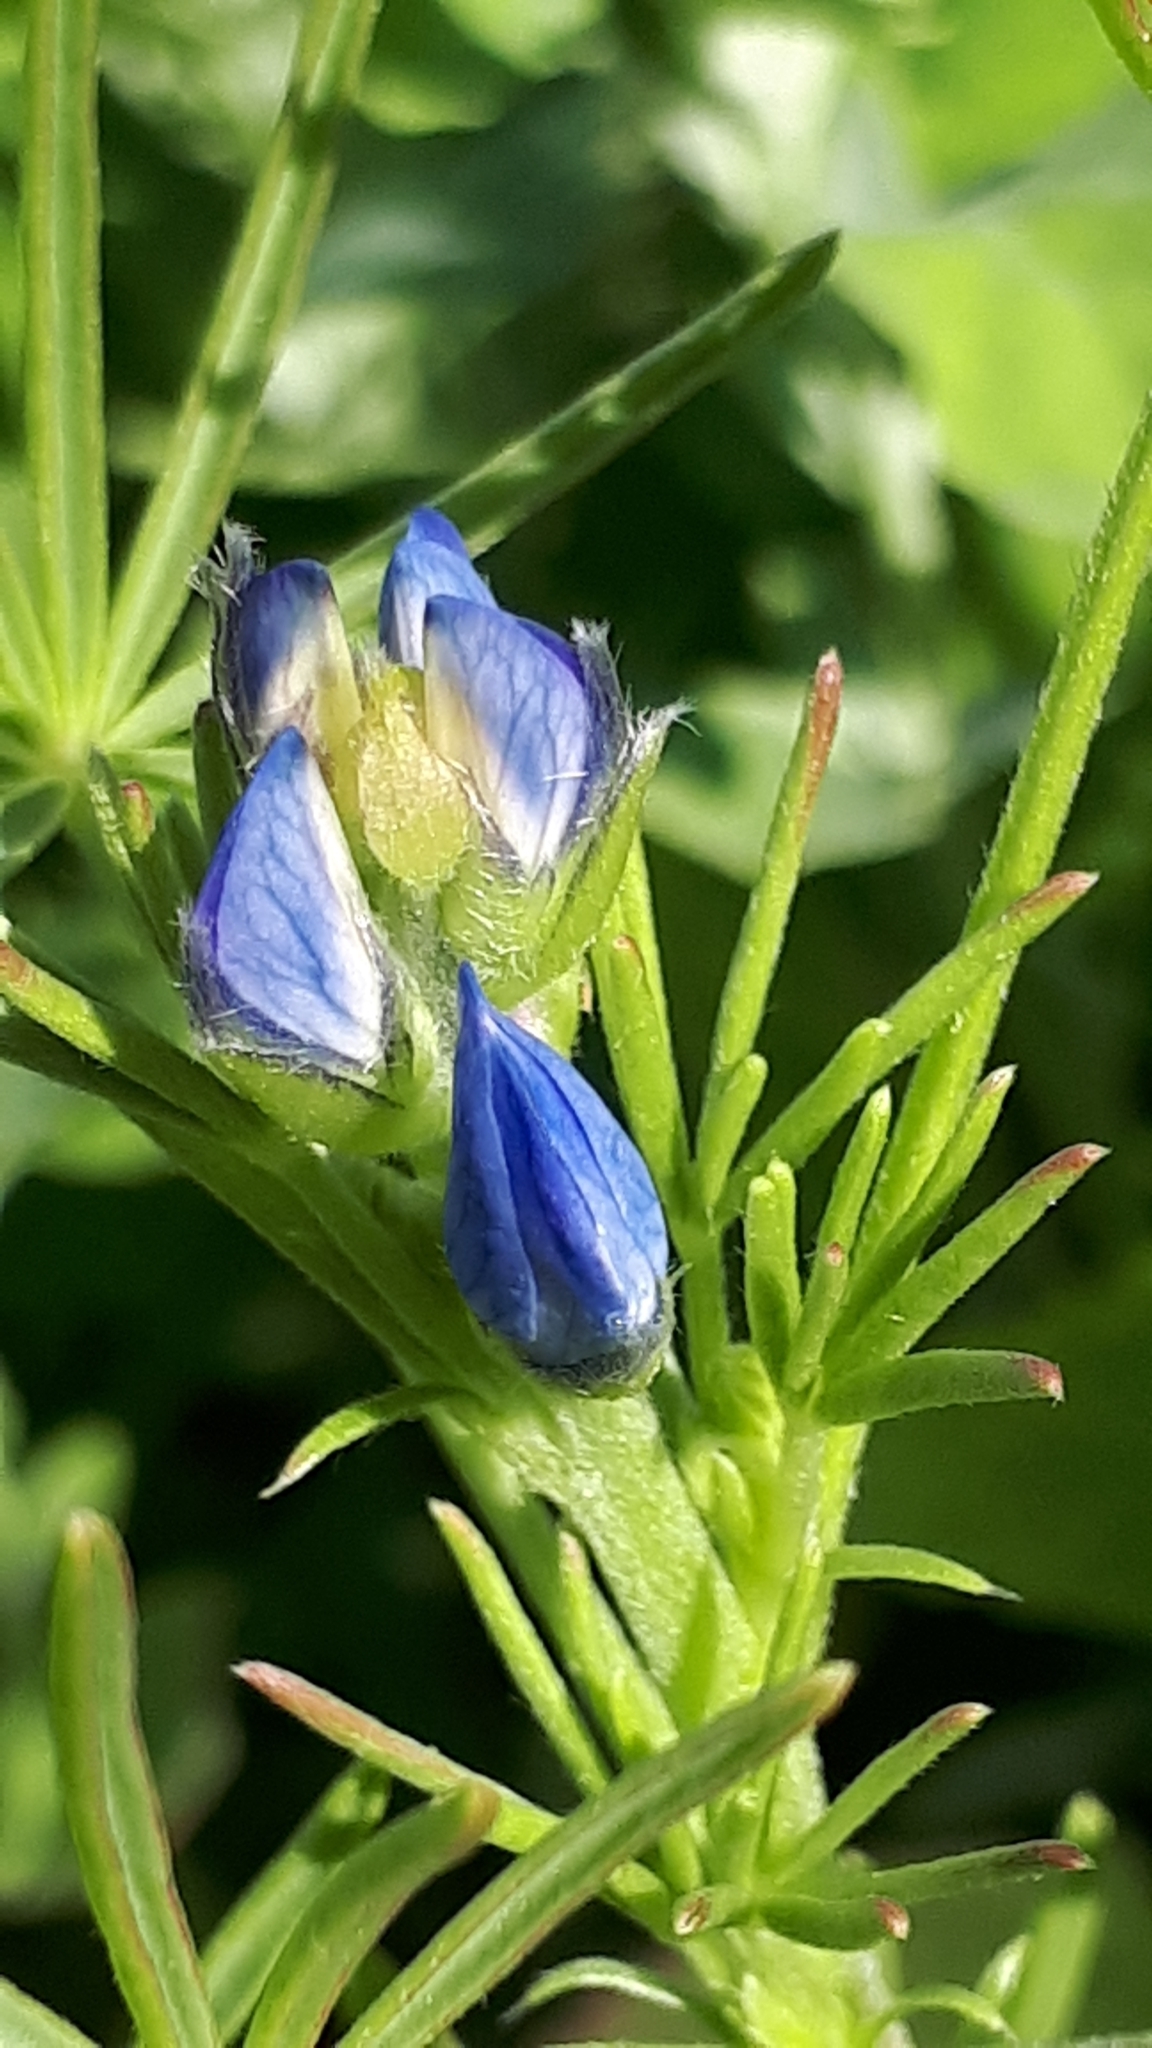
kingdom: Plantae
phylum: Tracheophyta
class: Magnoliopsida
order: Fabales
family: Fabaceae
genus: Lupinus
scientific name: Lupinus angustifolius
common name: Narrow-leaved lupin
